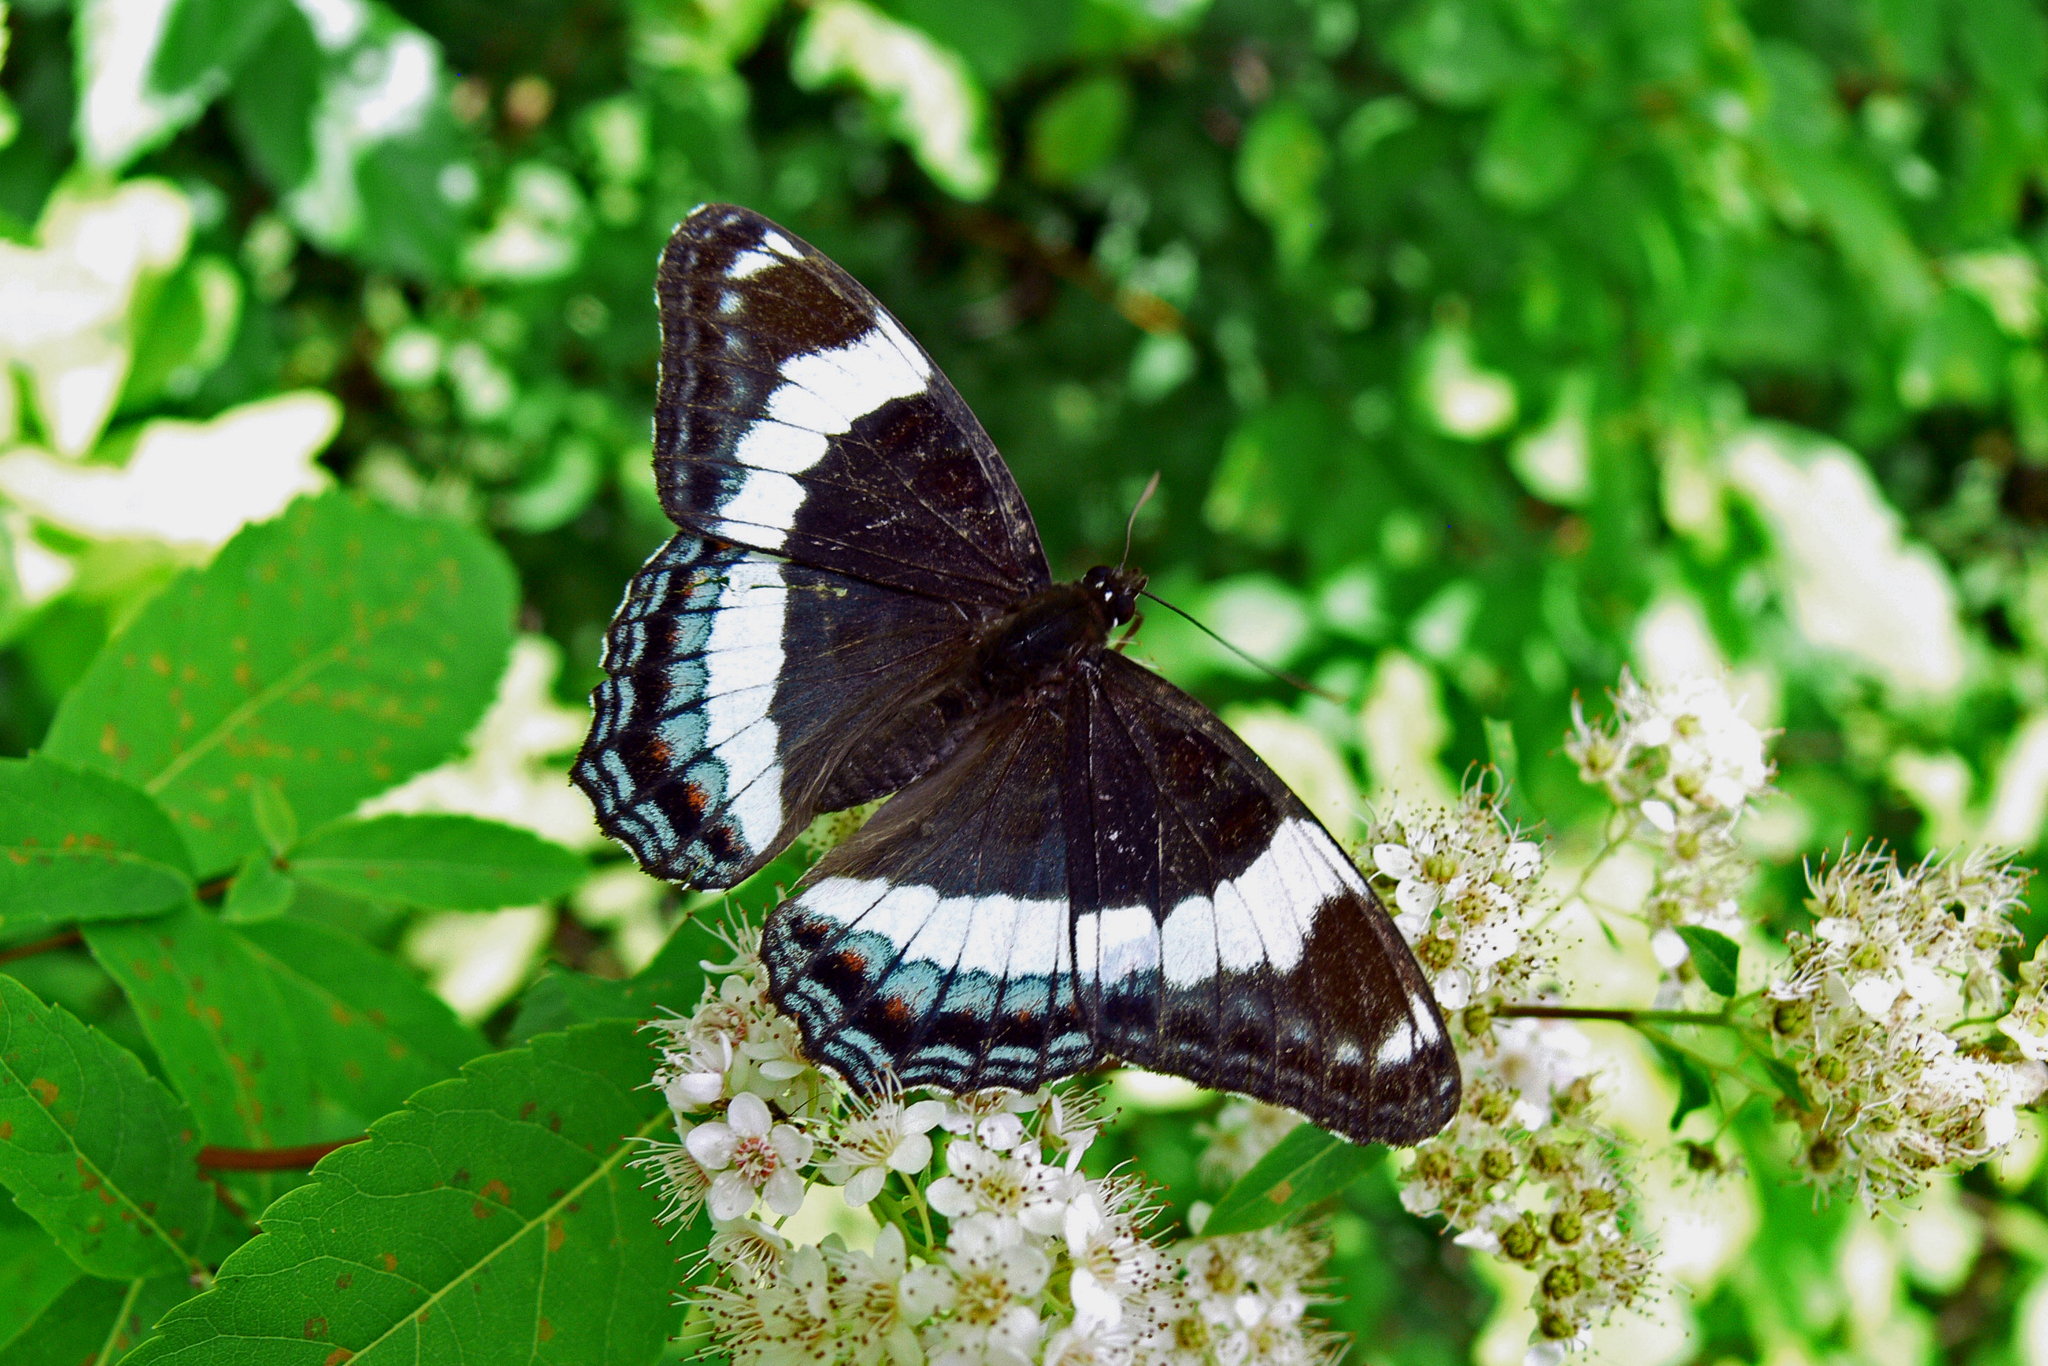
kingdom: Animalia
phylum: Arthropoda
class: Insecta
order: Lepidoptera
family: Nymphalidae
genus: Limenitis
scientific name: Limenitis arthemis
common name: Red-spotted admiral
